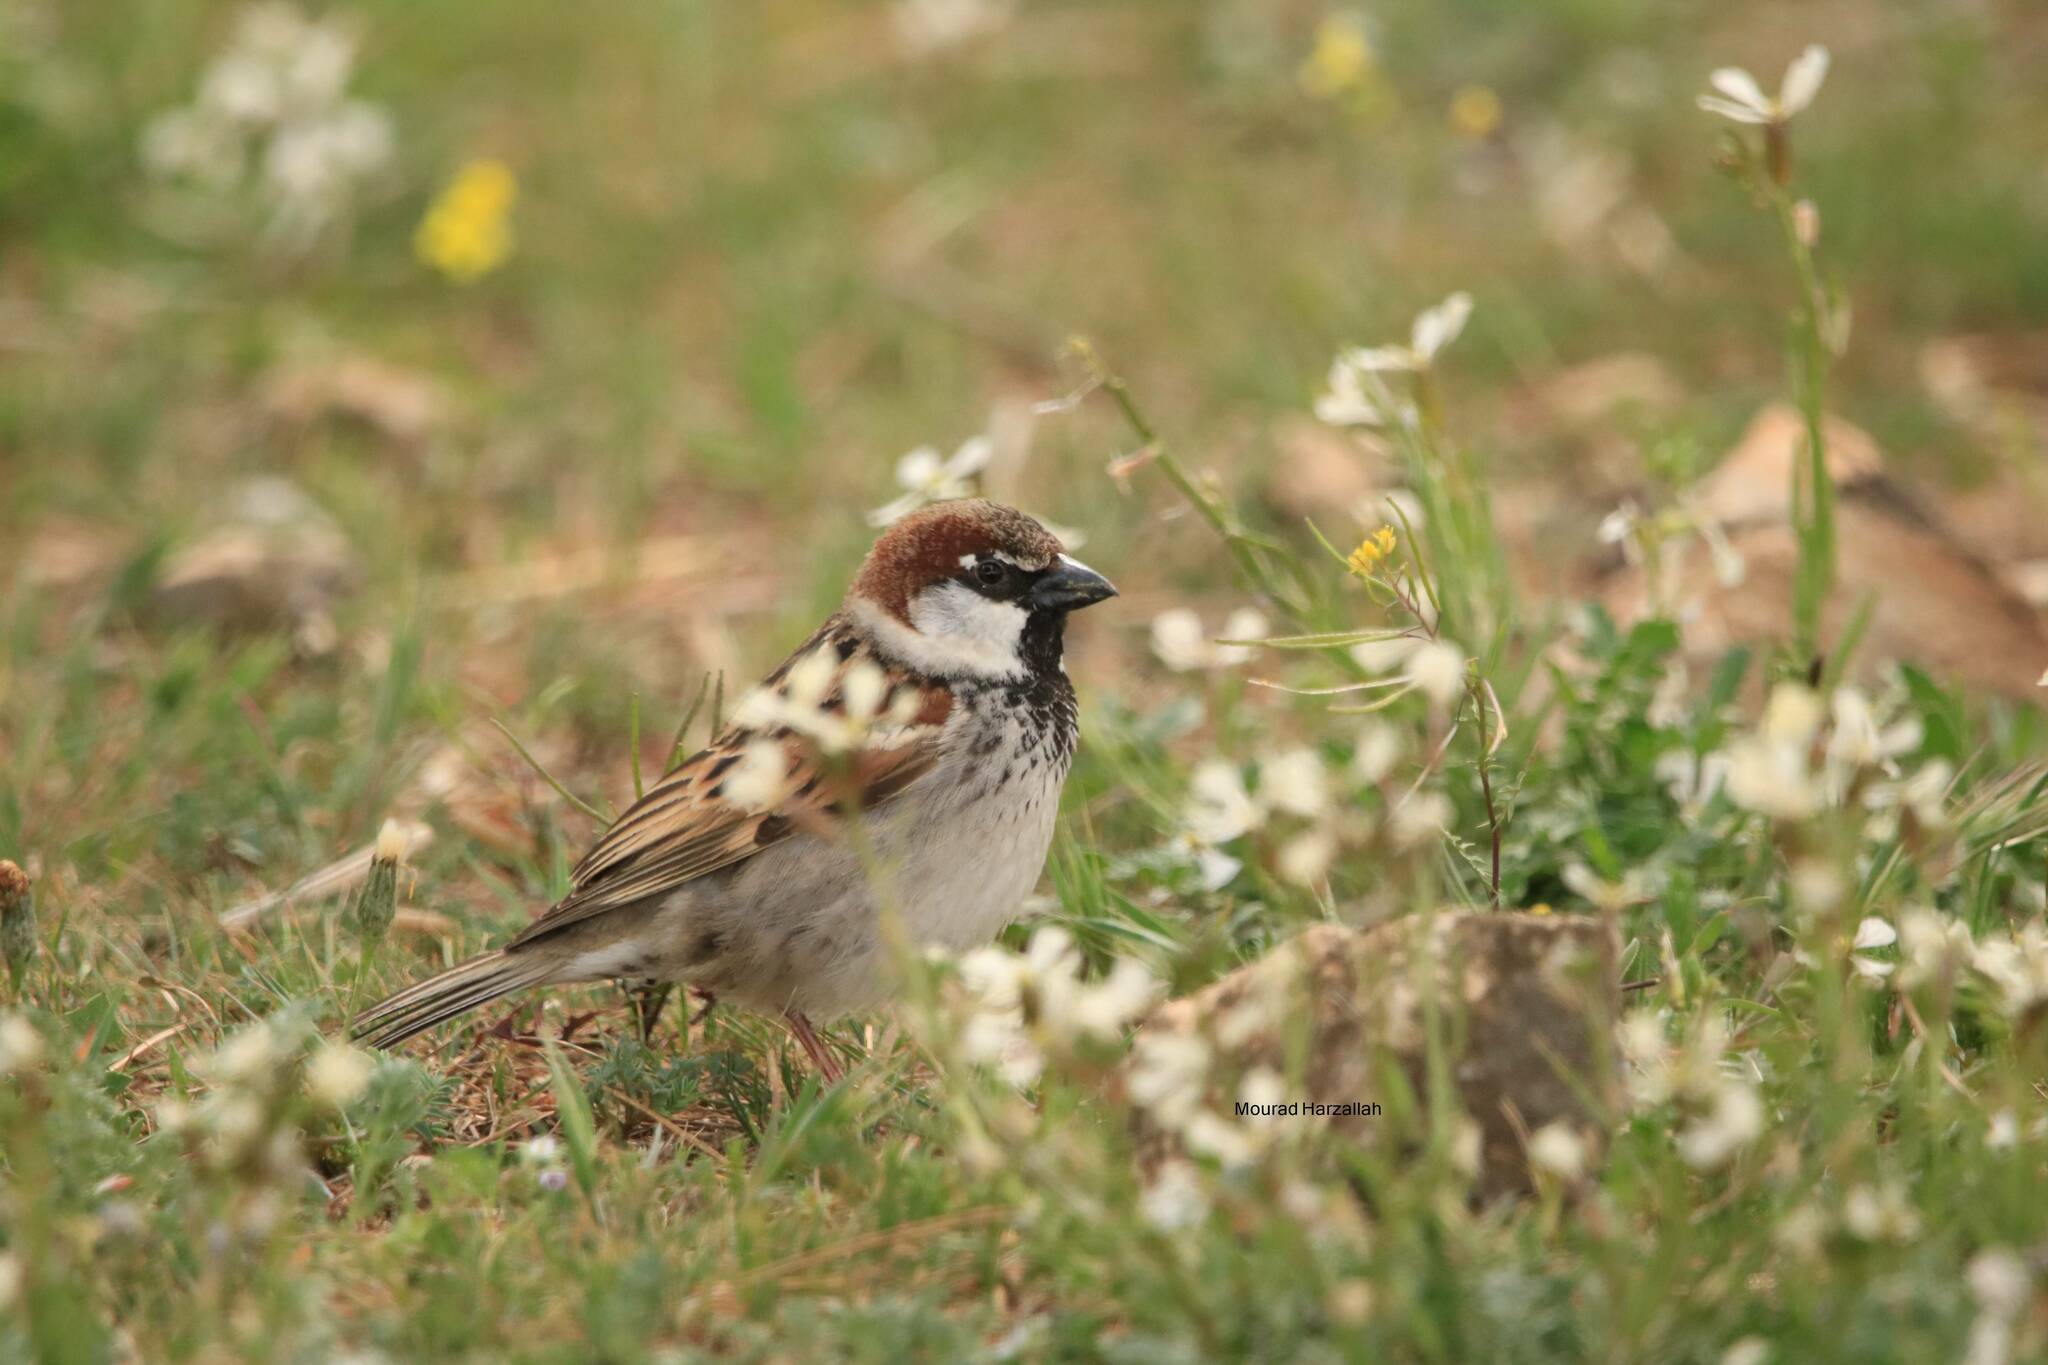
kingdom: Animalia
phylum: Chordata
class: Aves
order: Passeriformes
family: Passeridae
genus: Passer
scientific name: Passer hispaniolensis
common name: Spanish sparrow
